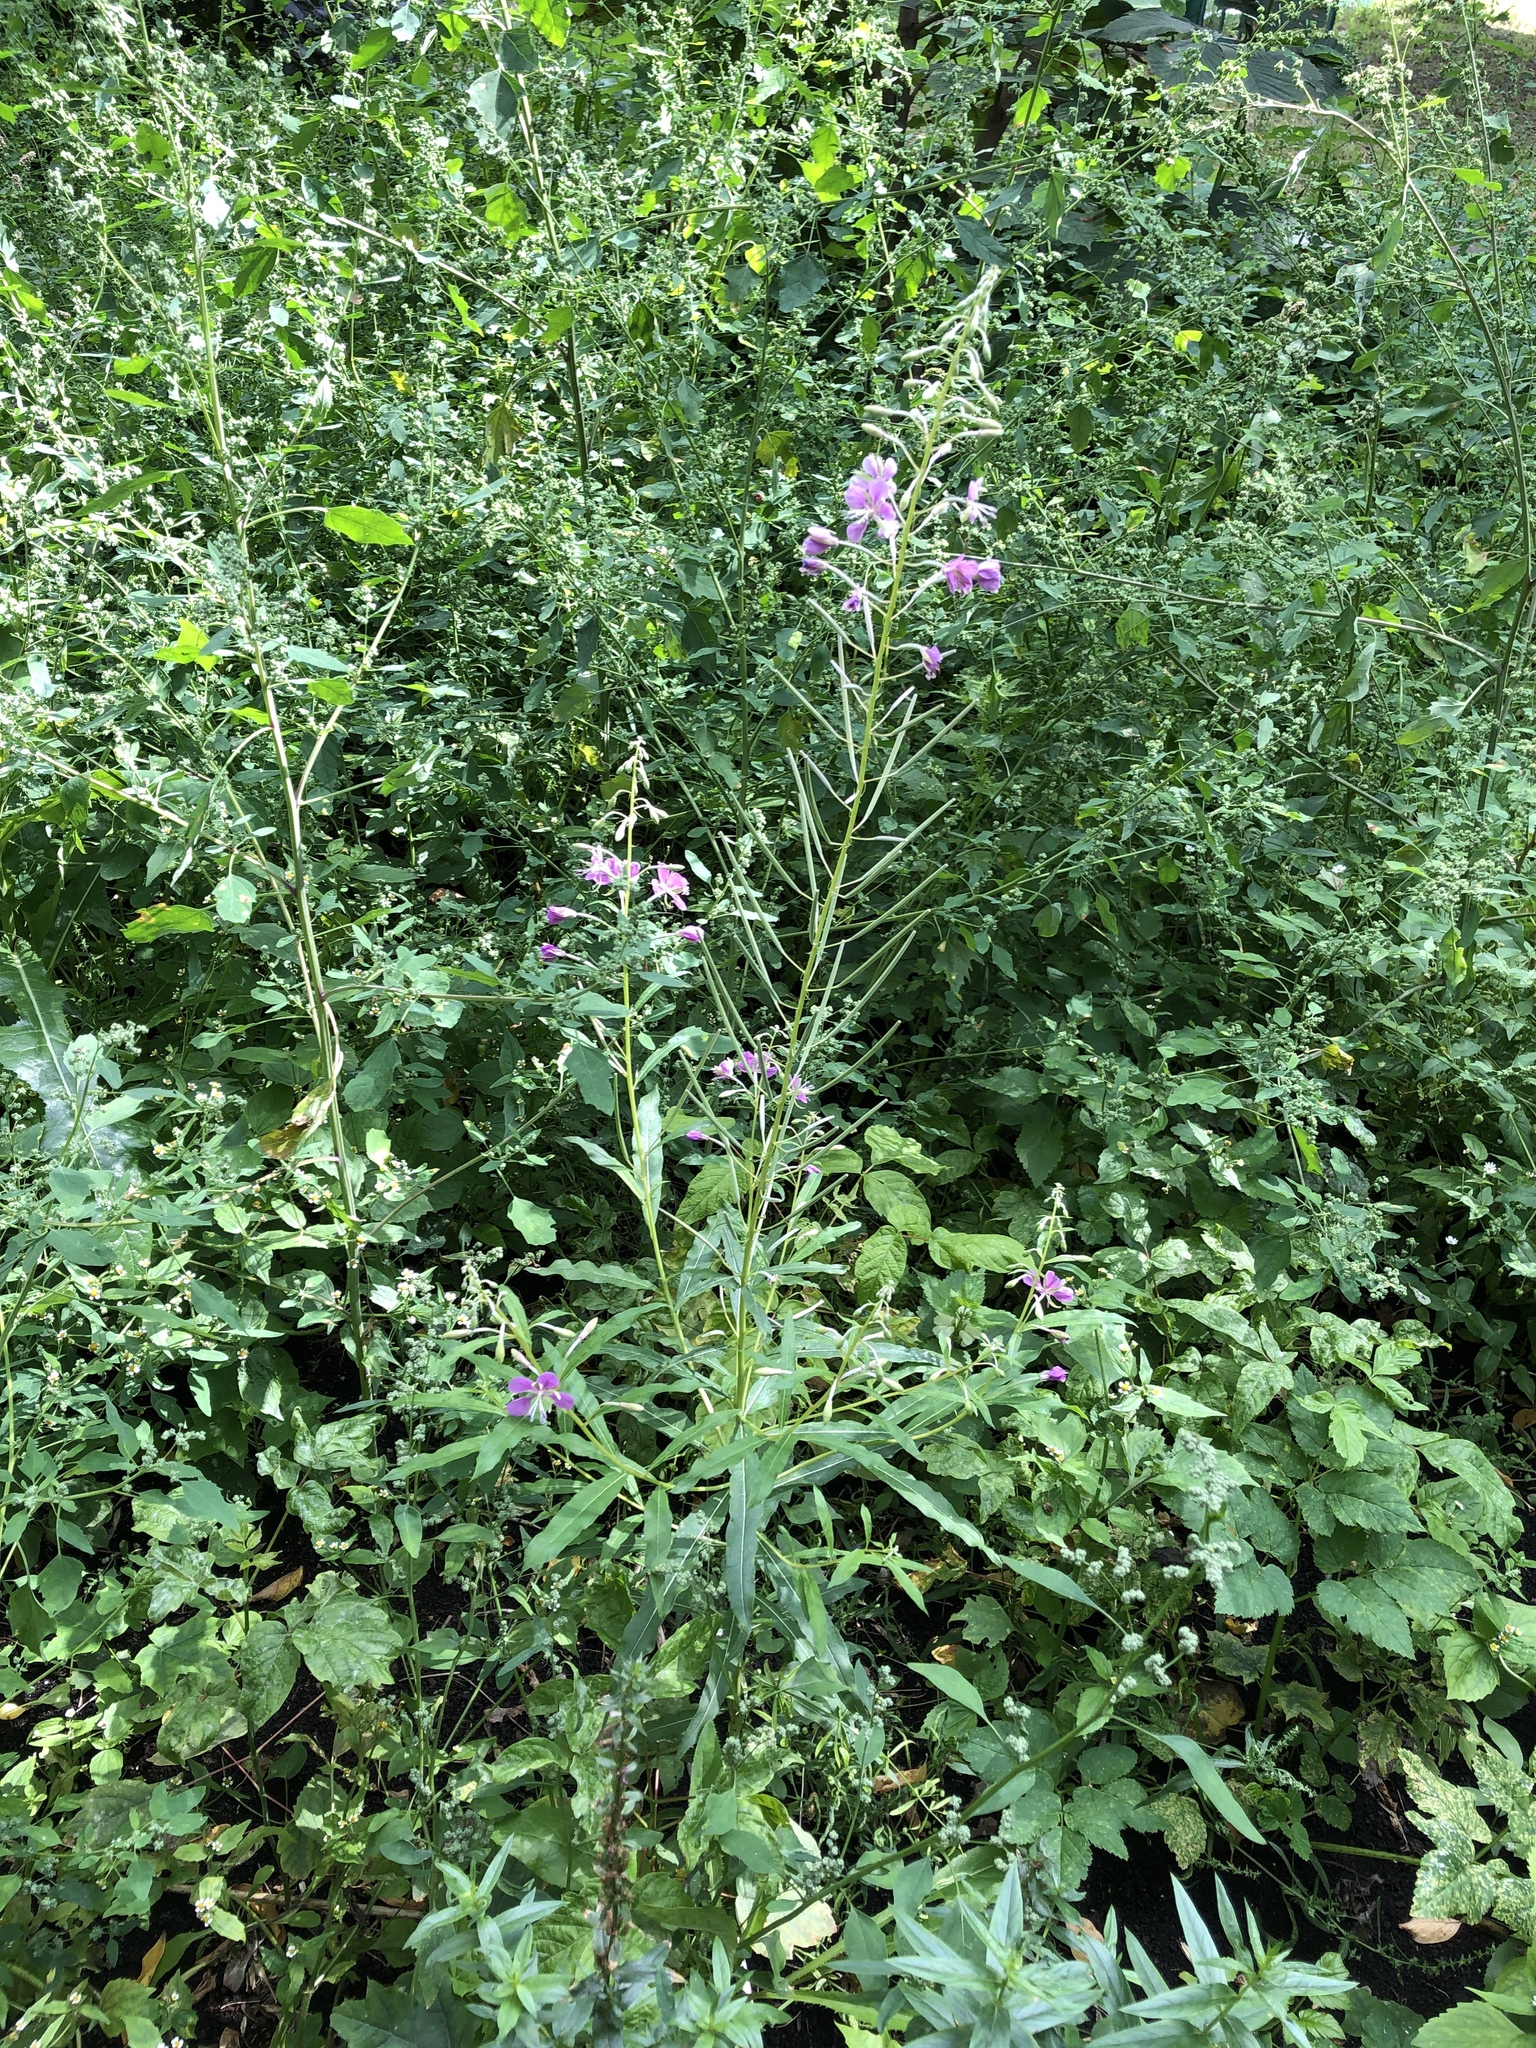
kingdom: Plantae
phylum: Tracheophyta
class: Magnoliopsida
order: Myrtales
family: Onagraceae
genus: Chamaenerion
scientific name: Chamaenerion angustifolium
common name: Fireweed
